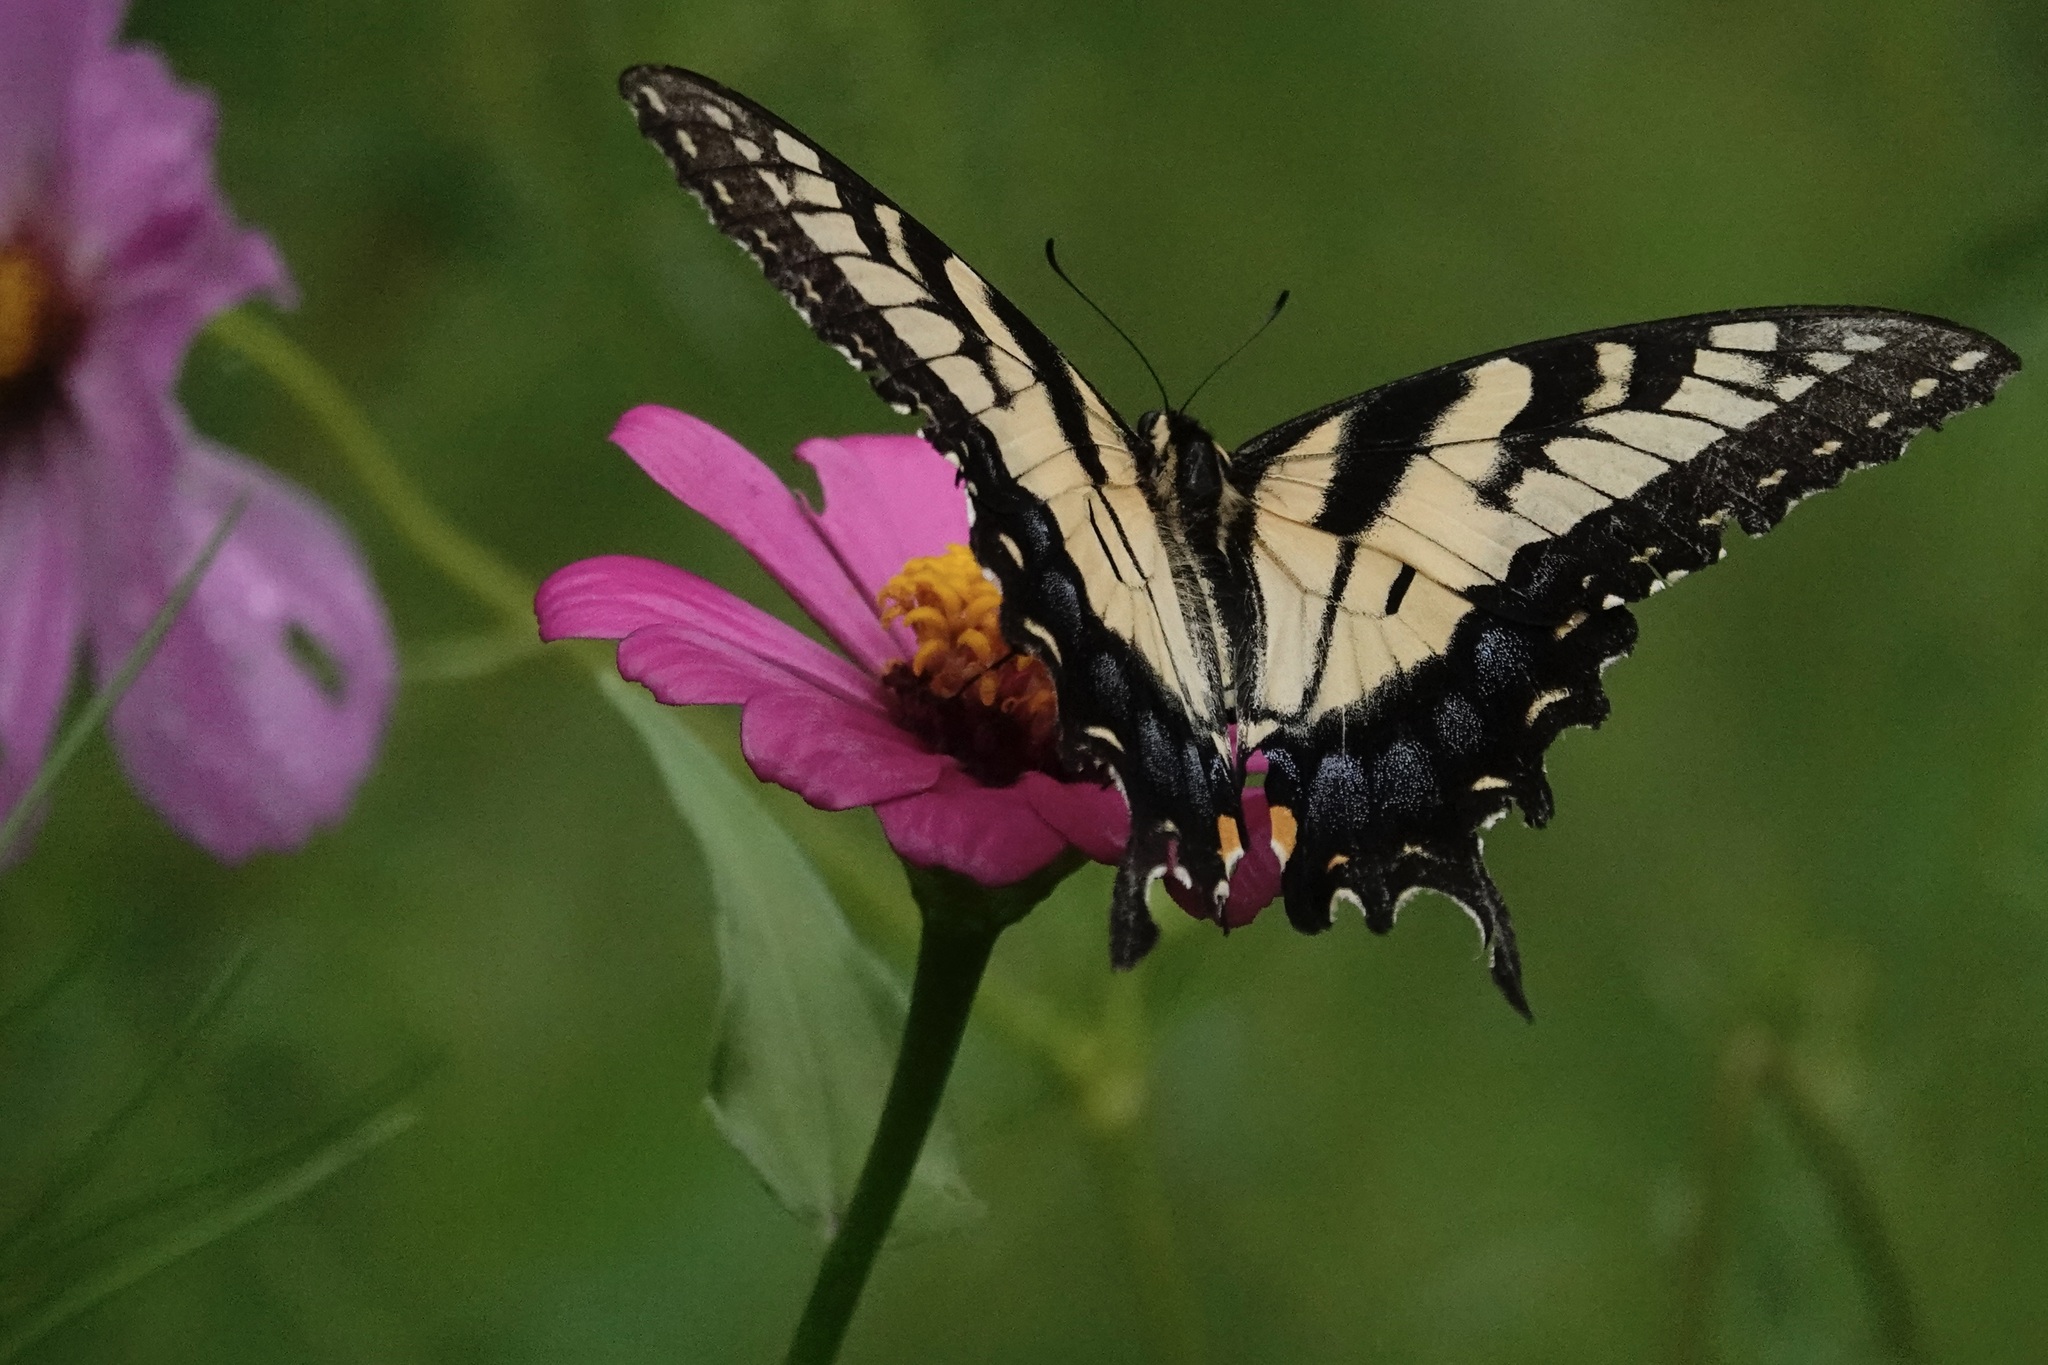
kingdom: Animalia
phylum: Arthropoda
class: Insecta
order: Lepidoptera
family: Papilionidae
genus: Papilio
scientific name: Papilio glaucus
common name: Tiger swallowtail
